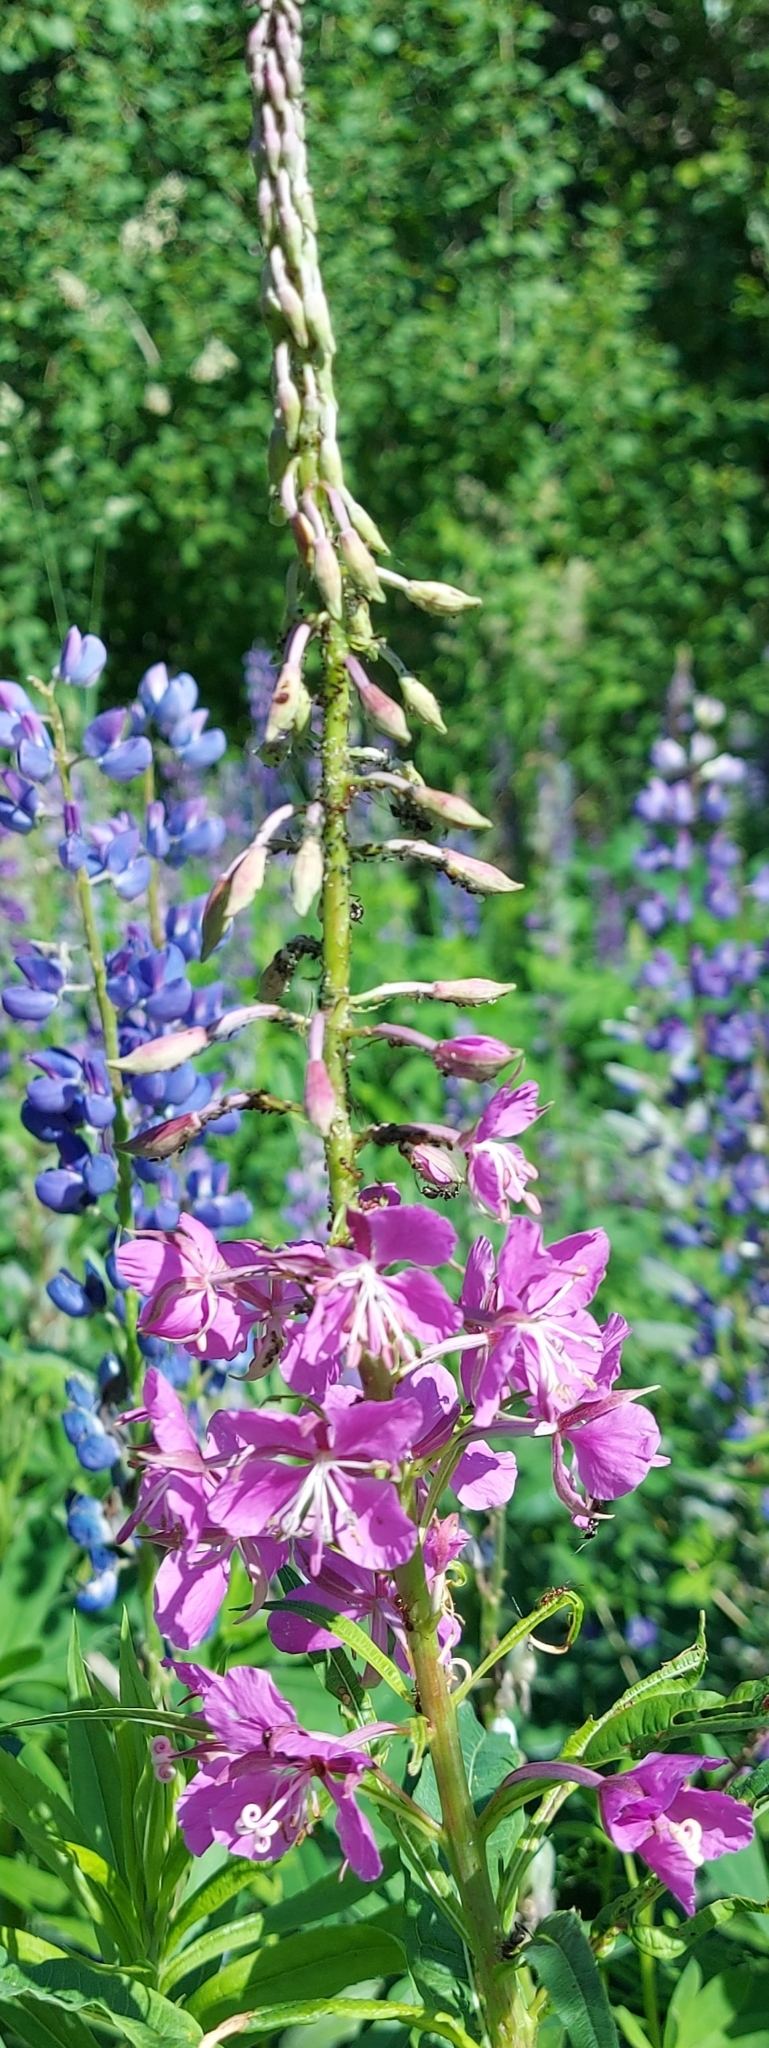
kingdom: Plantae
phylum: Tracheophyta
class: Magnoliopsida
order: Myrtales
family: Onagraceae
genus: Chamaenerion
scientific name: Chamaenerion angustifolium
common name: Fireweed
